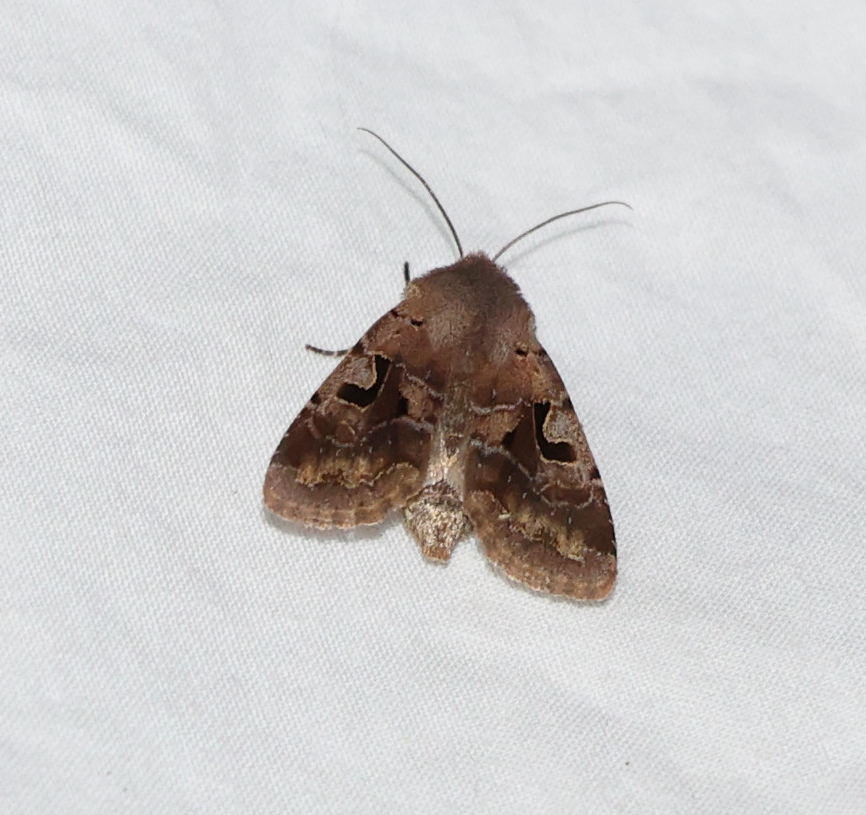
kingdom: Animalia
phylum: Arthropoda
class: Insecta
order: Lepidoptera
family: Noctuidae
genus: Orthosia
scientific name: Orthosia gothica
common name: Hebrew character
